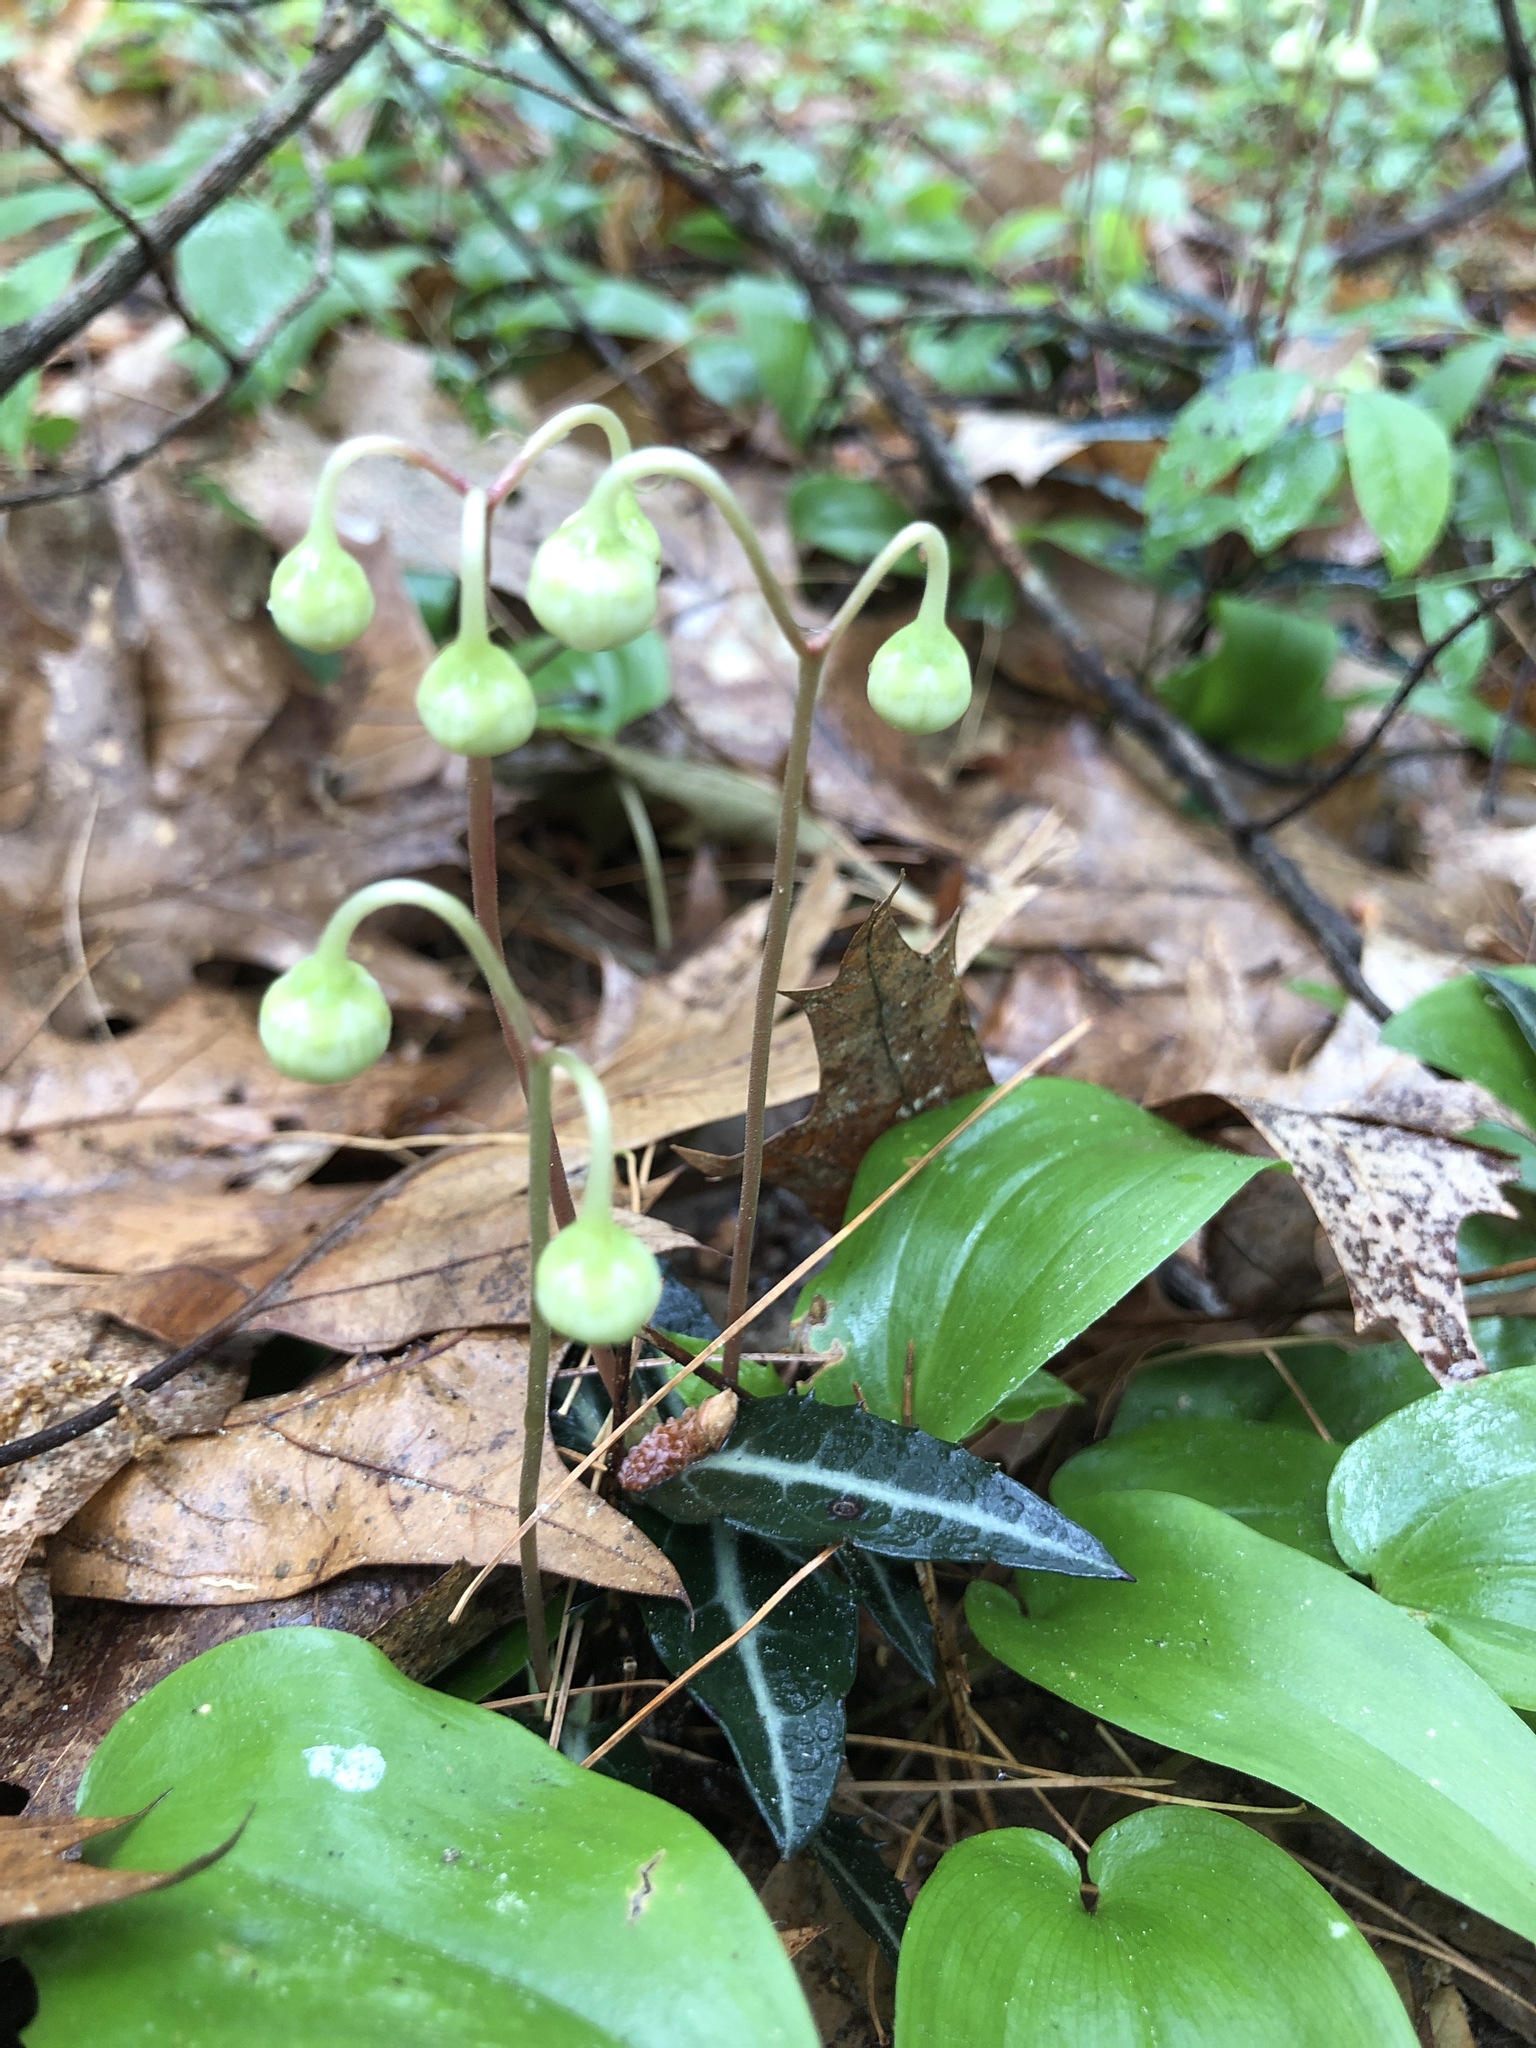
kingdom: Plantae
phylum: Tracheophyta
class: Magnoliopsida
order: Ericales
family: Ericaceae
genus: Chimaphila
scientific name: Chimaphila maculata
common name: Spotted pipsissewa
